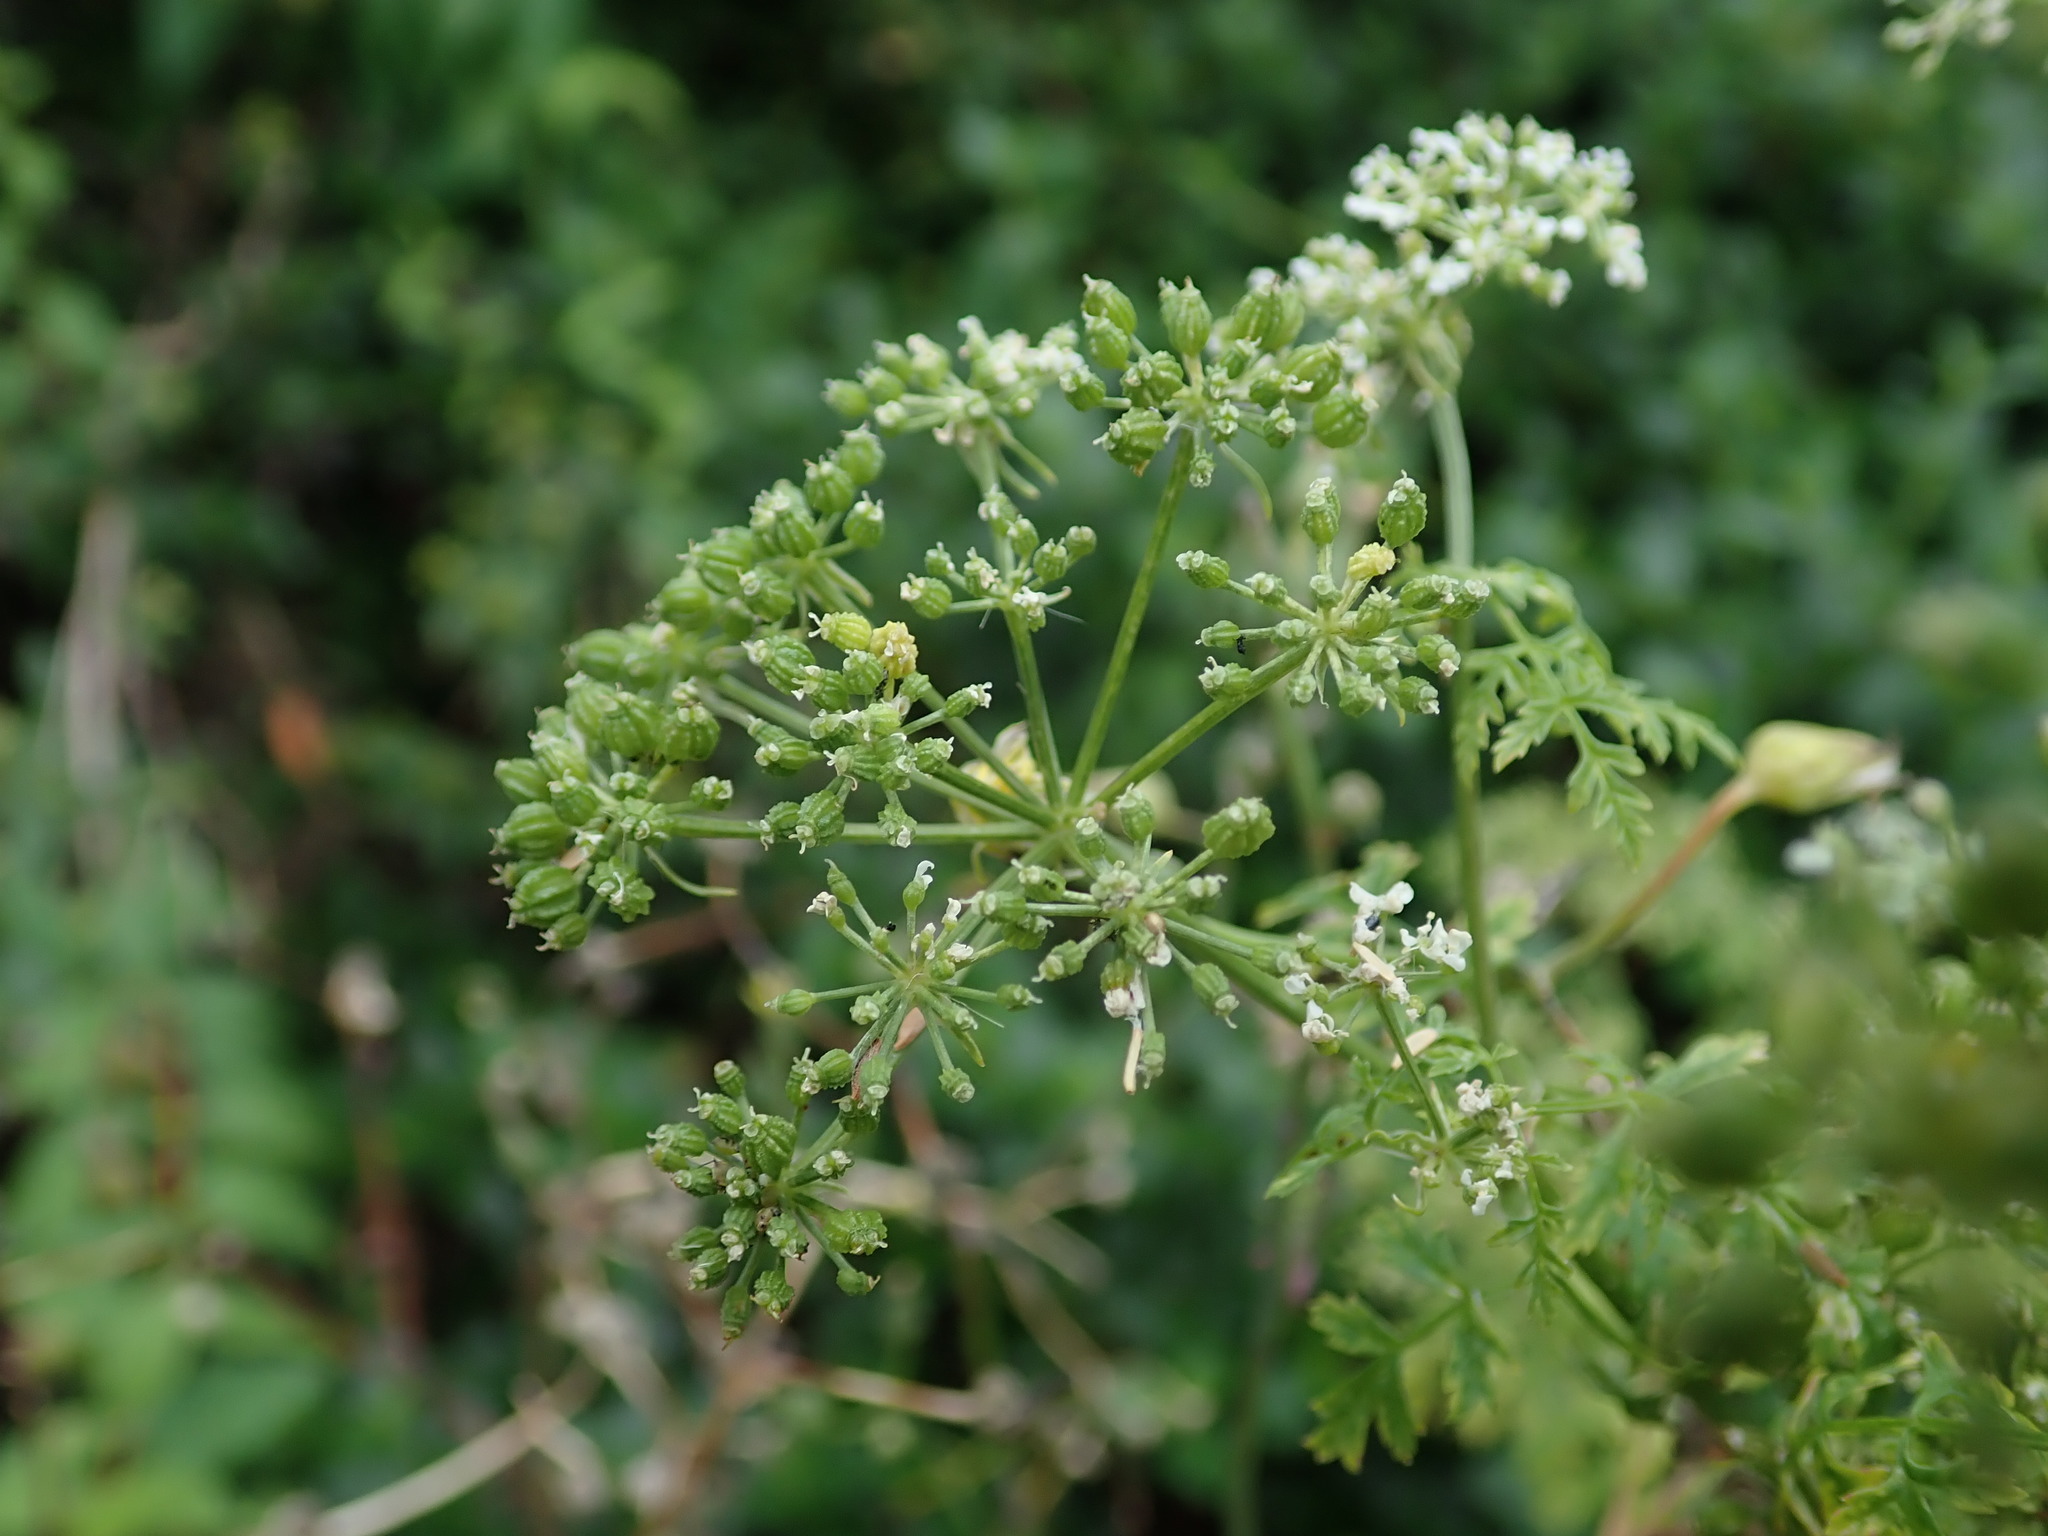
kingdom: Plantae
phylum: Tracheophyta
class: Magnoliopsida
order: Apiales
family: Apiaceae
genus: Conium
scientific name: Conium maculatum
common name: Hemlock
